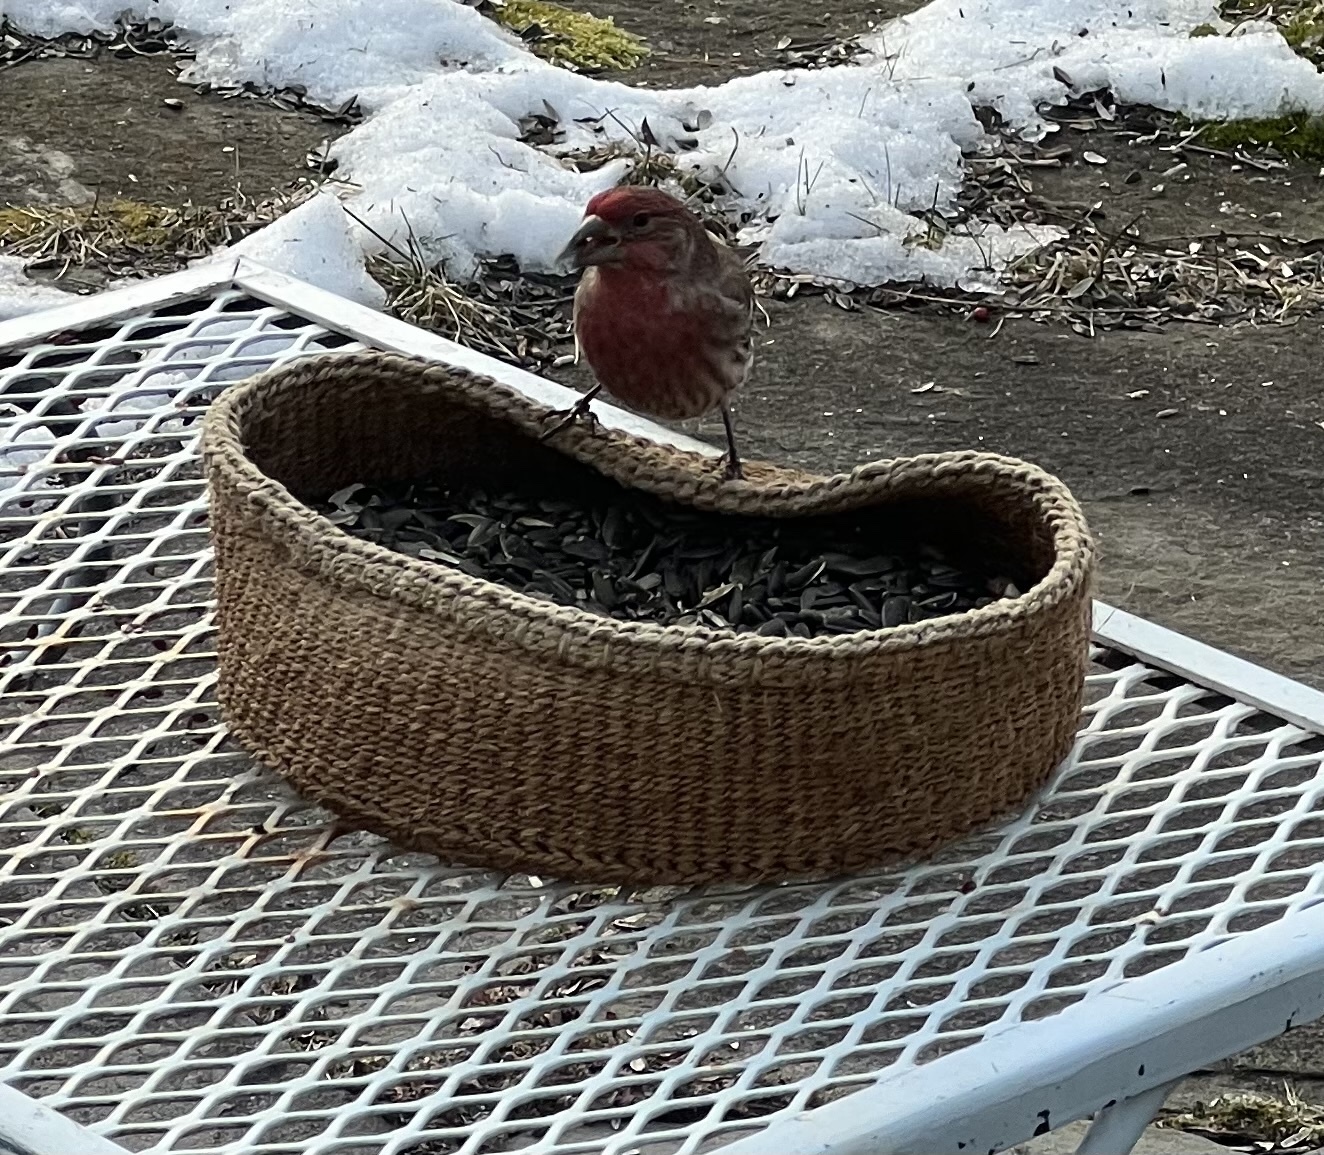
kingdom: Animalia
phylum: Chordata
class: Aves
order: Passeriformes
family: Fringillidae
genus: Haemorhous
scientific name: Haemorhous mexicanus
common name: House finch
